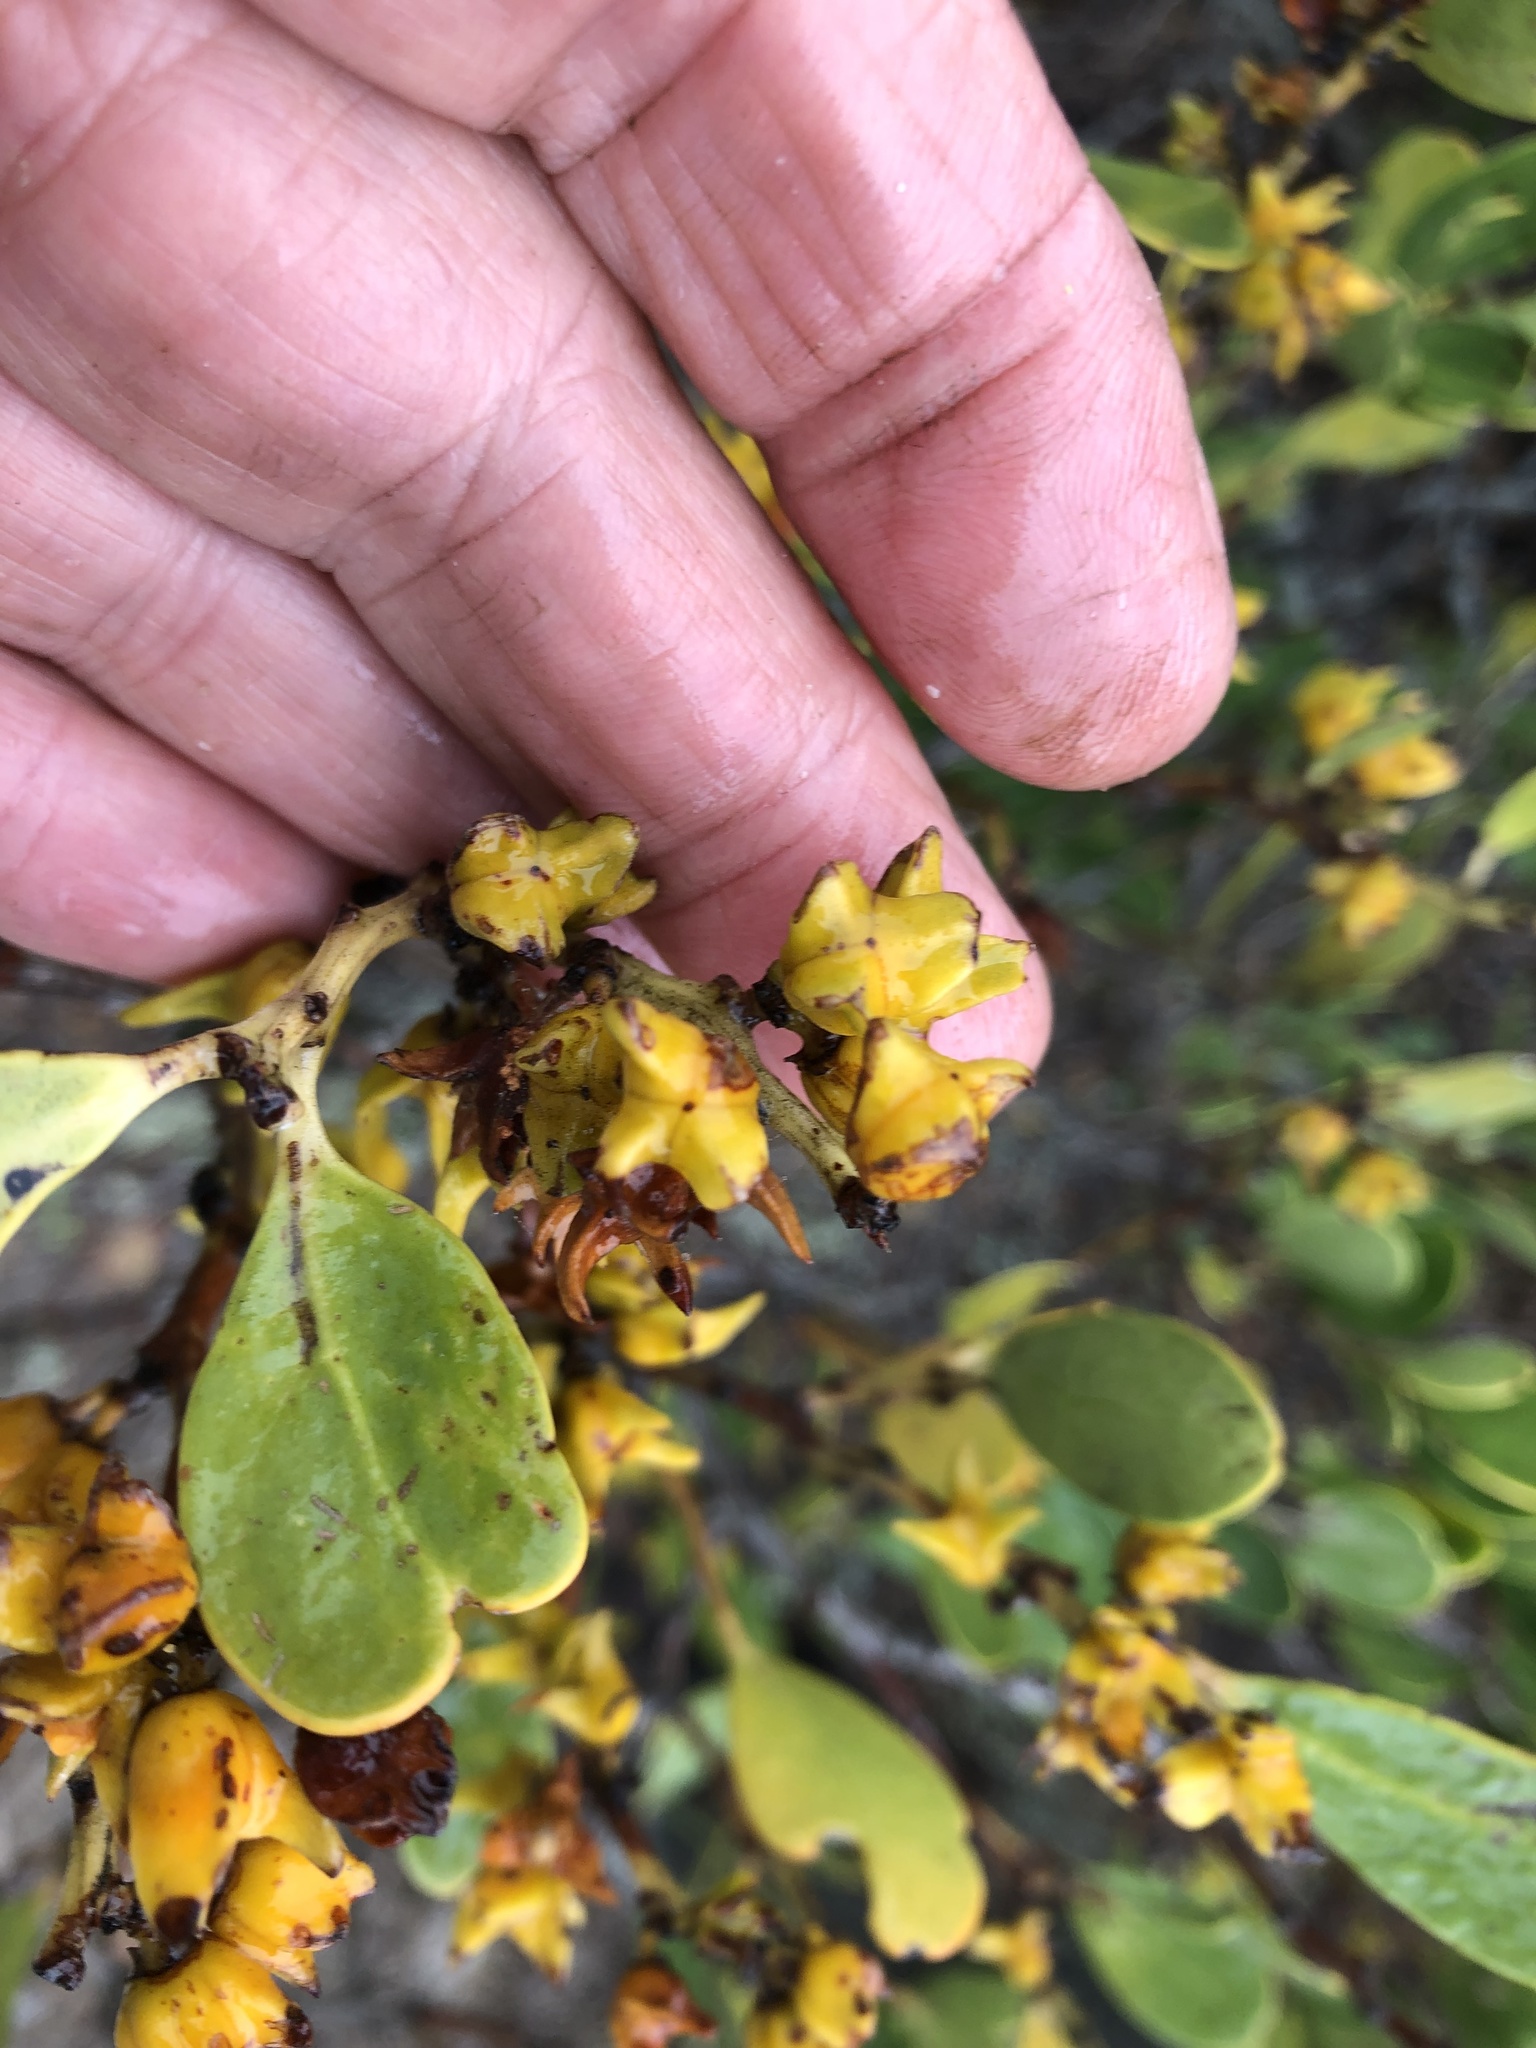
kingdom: Plantae
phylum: Tracheophyta
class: Magnoliopsida
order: Celastrales
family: Celastraceae
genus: Pterocelastrus
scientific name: Pterocelastrus tricuspidatus
